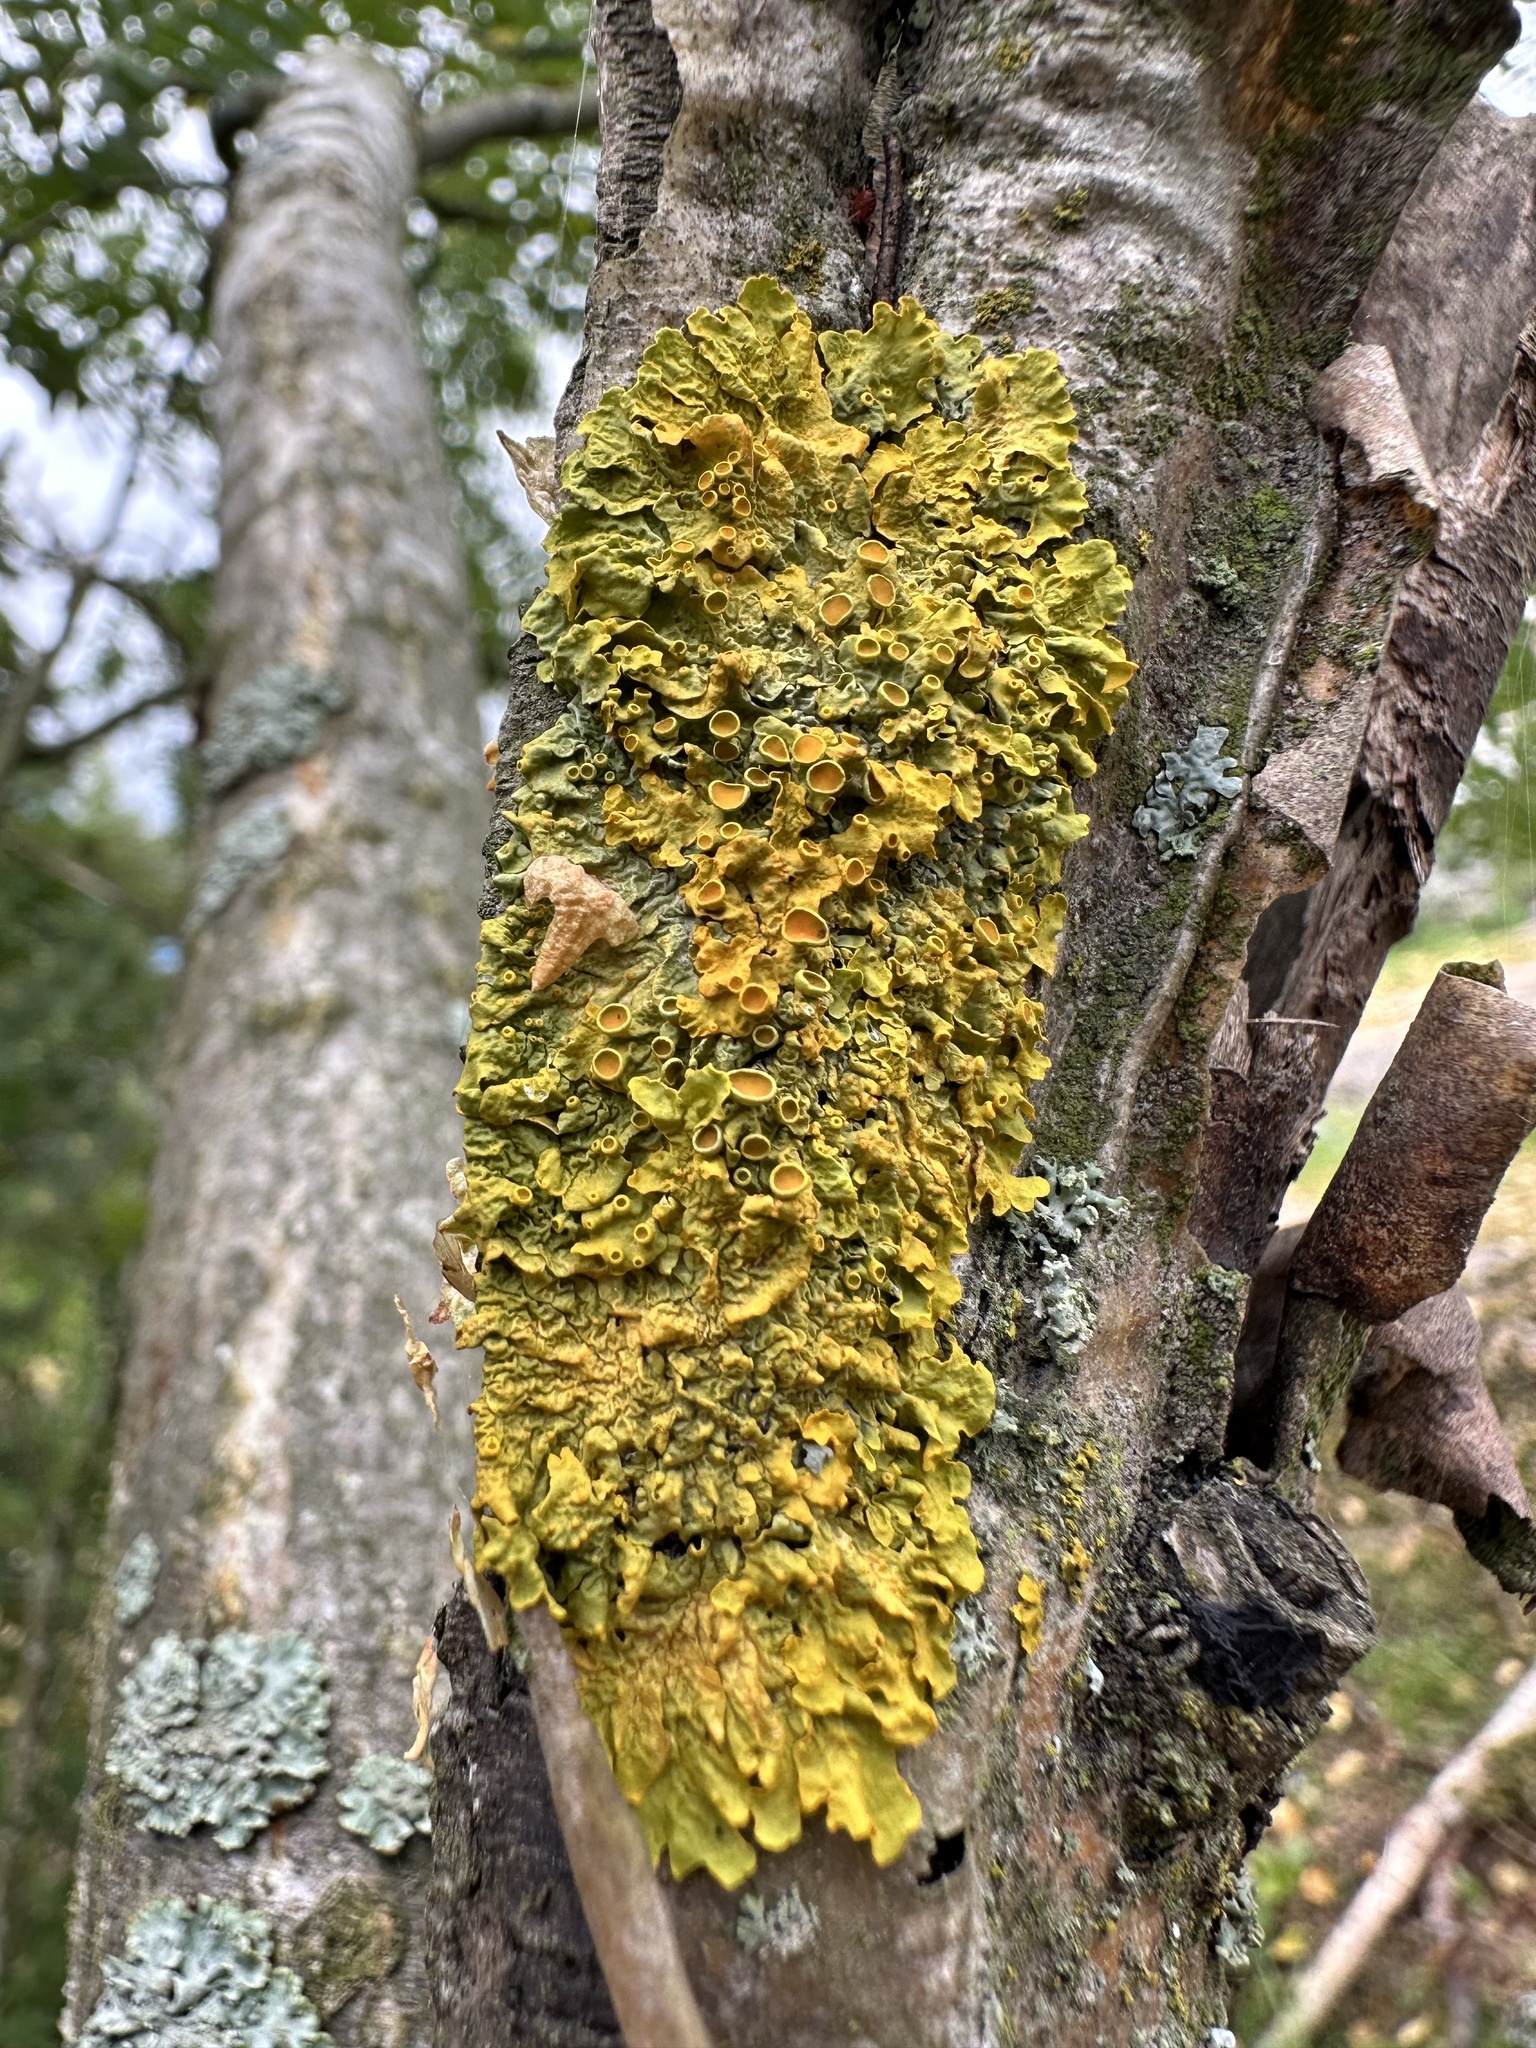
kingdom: Fungi
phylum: Ascomycota
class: Lecanoromycetes
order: Teloschistales
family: Teloschistaceae
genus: Xanthoria
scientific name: Xanthoria parietina
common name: Common orange lichen
